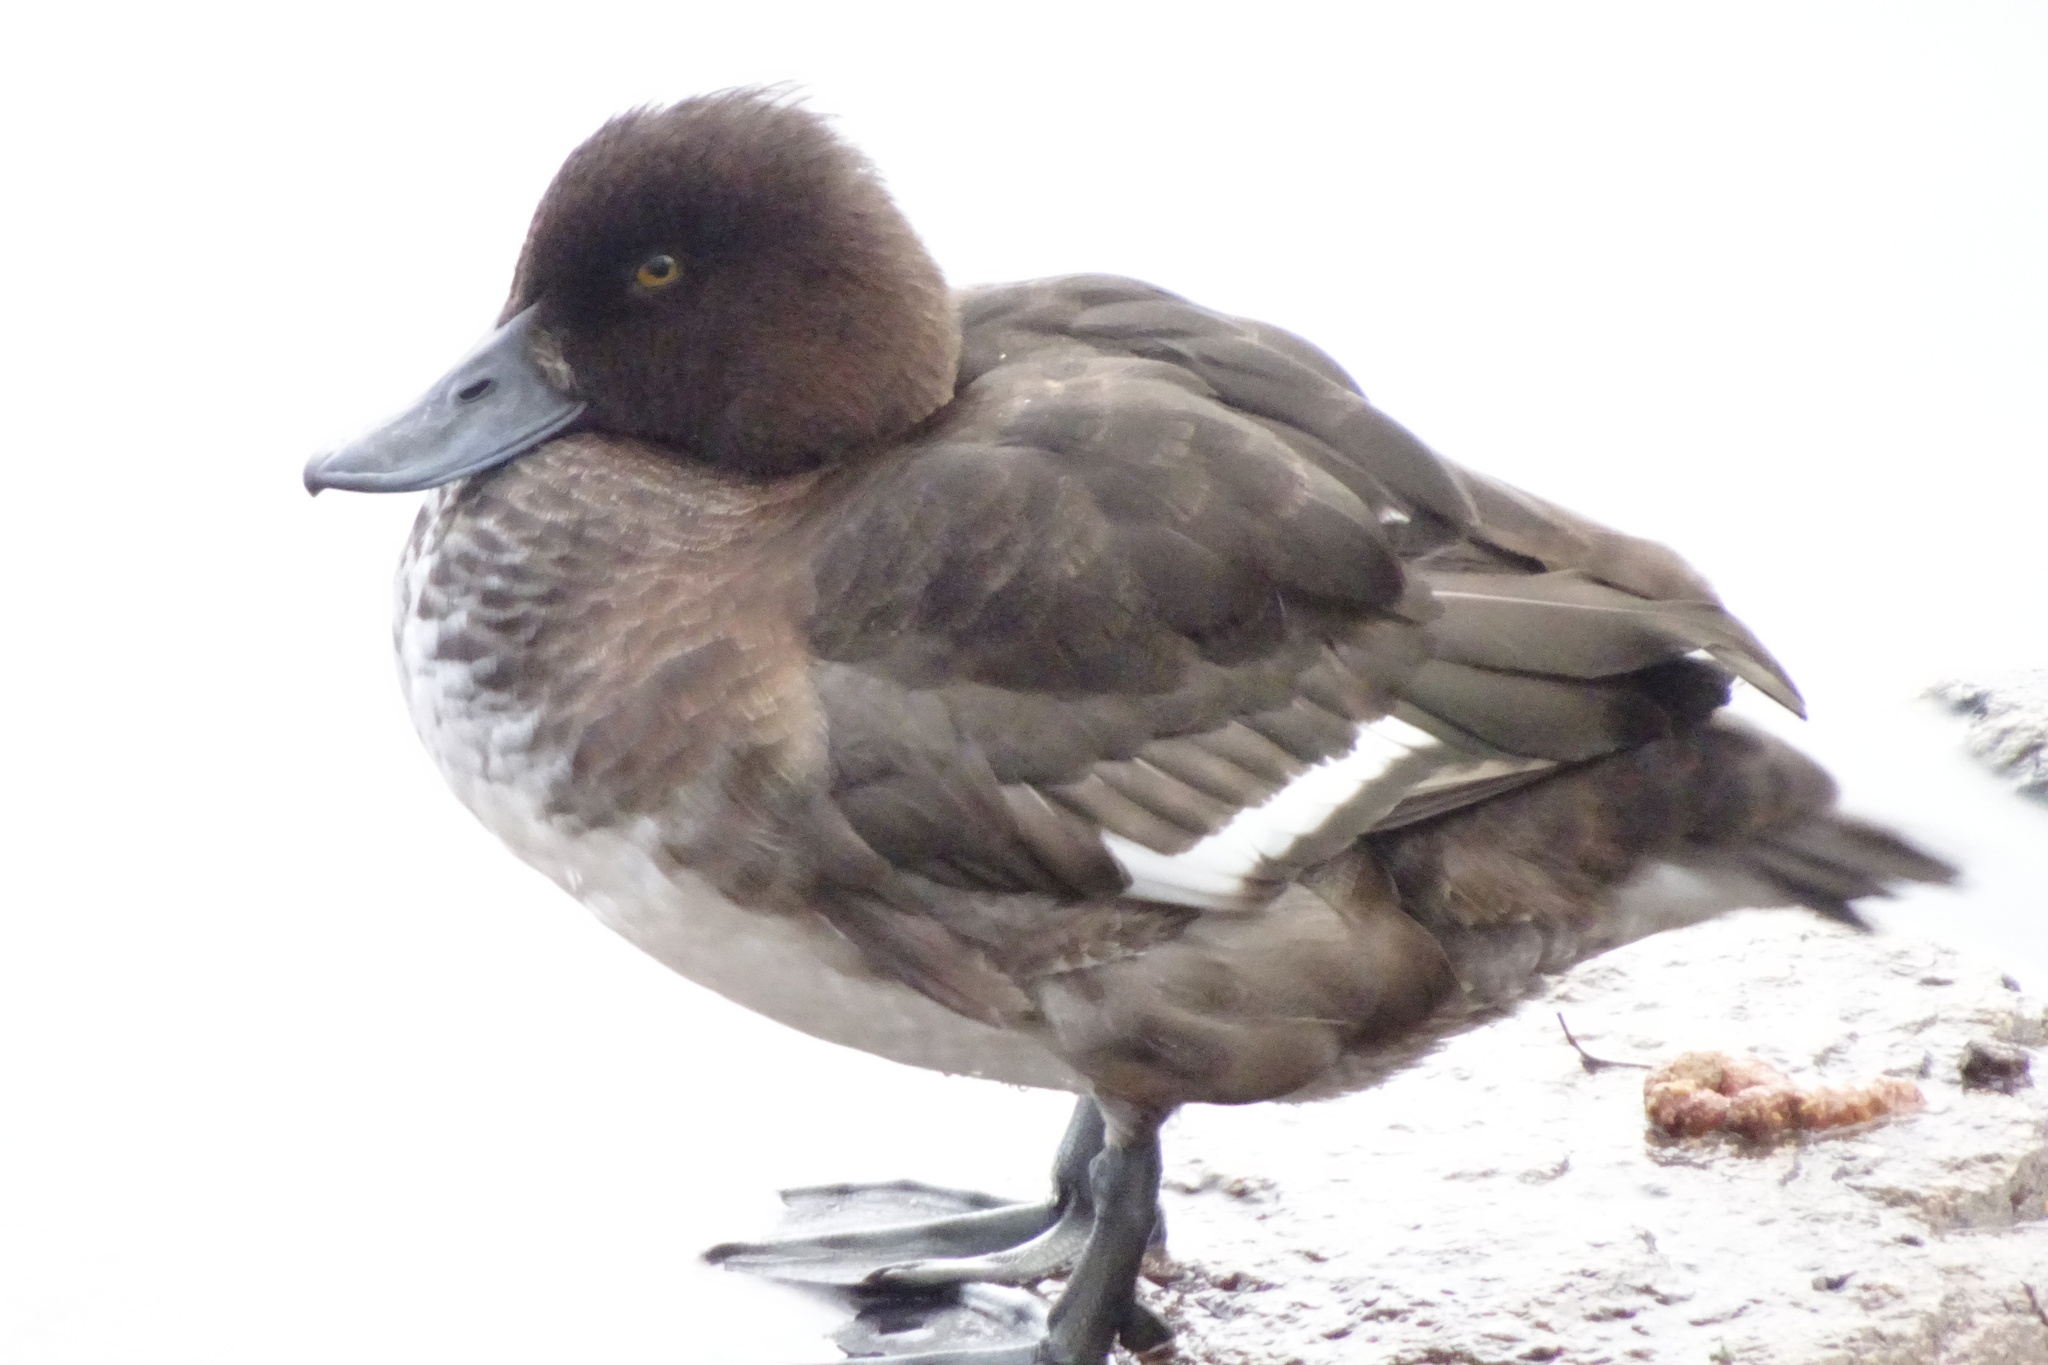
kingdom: Animalia
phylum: Chordata
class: Aves
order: Anseriformes
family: Anatidae
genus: Aythya
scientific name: Aythya fuligula
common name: Tufted duck
